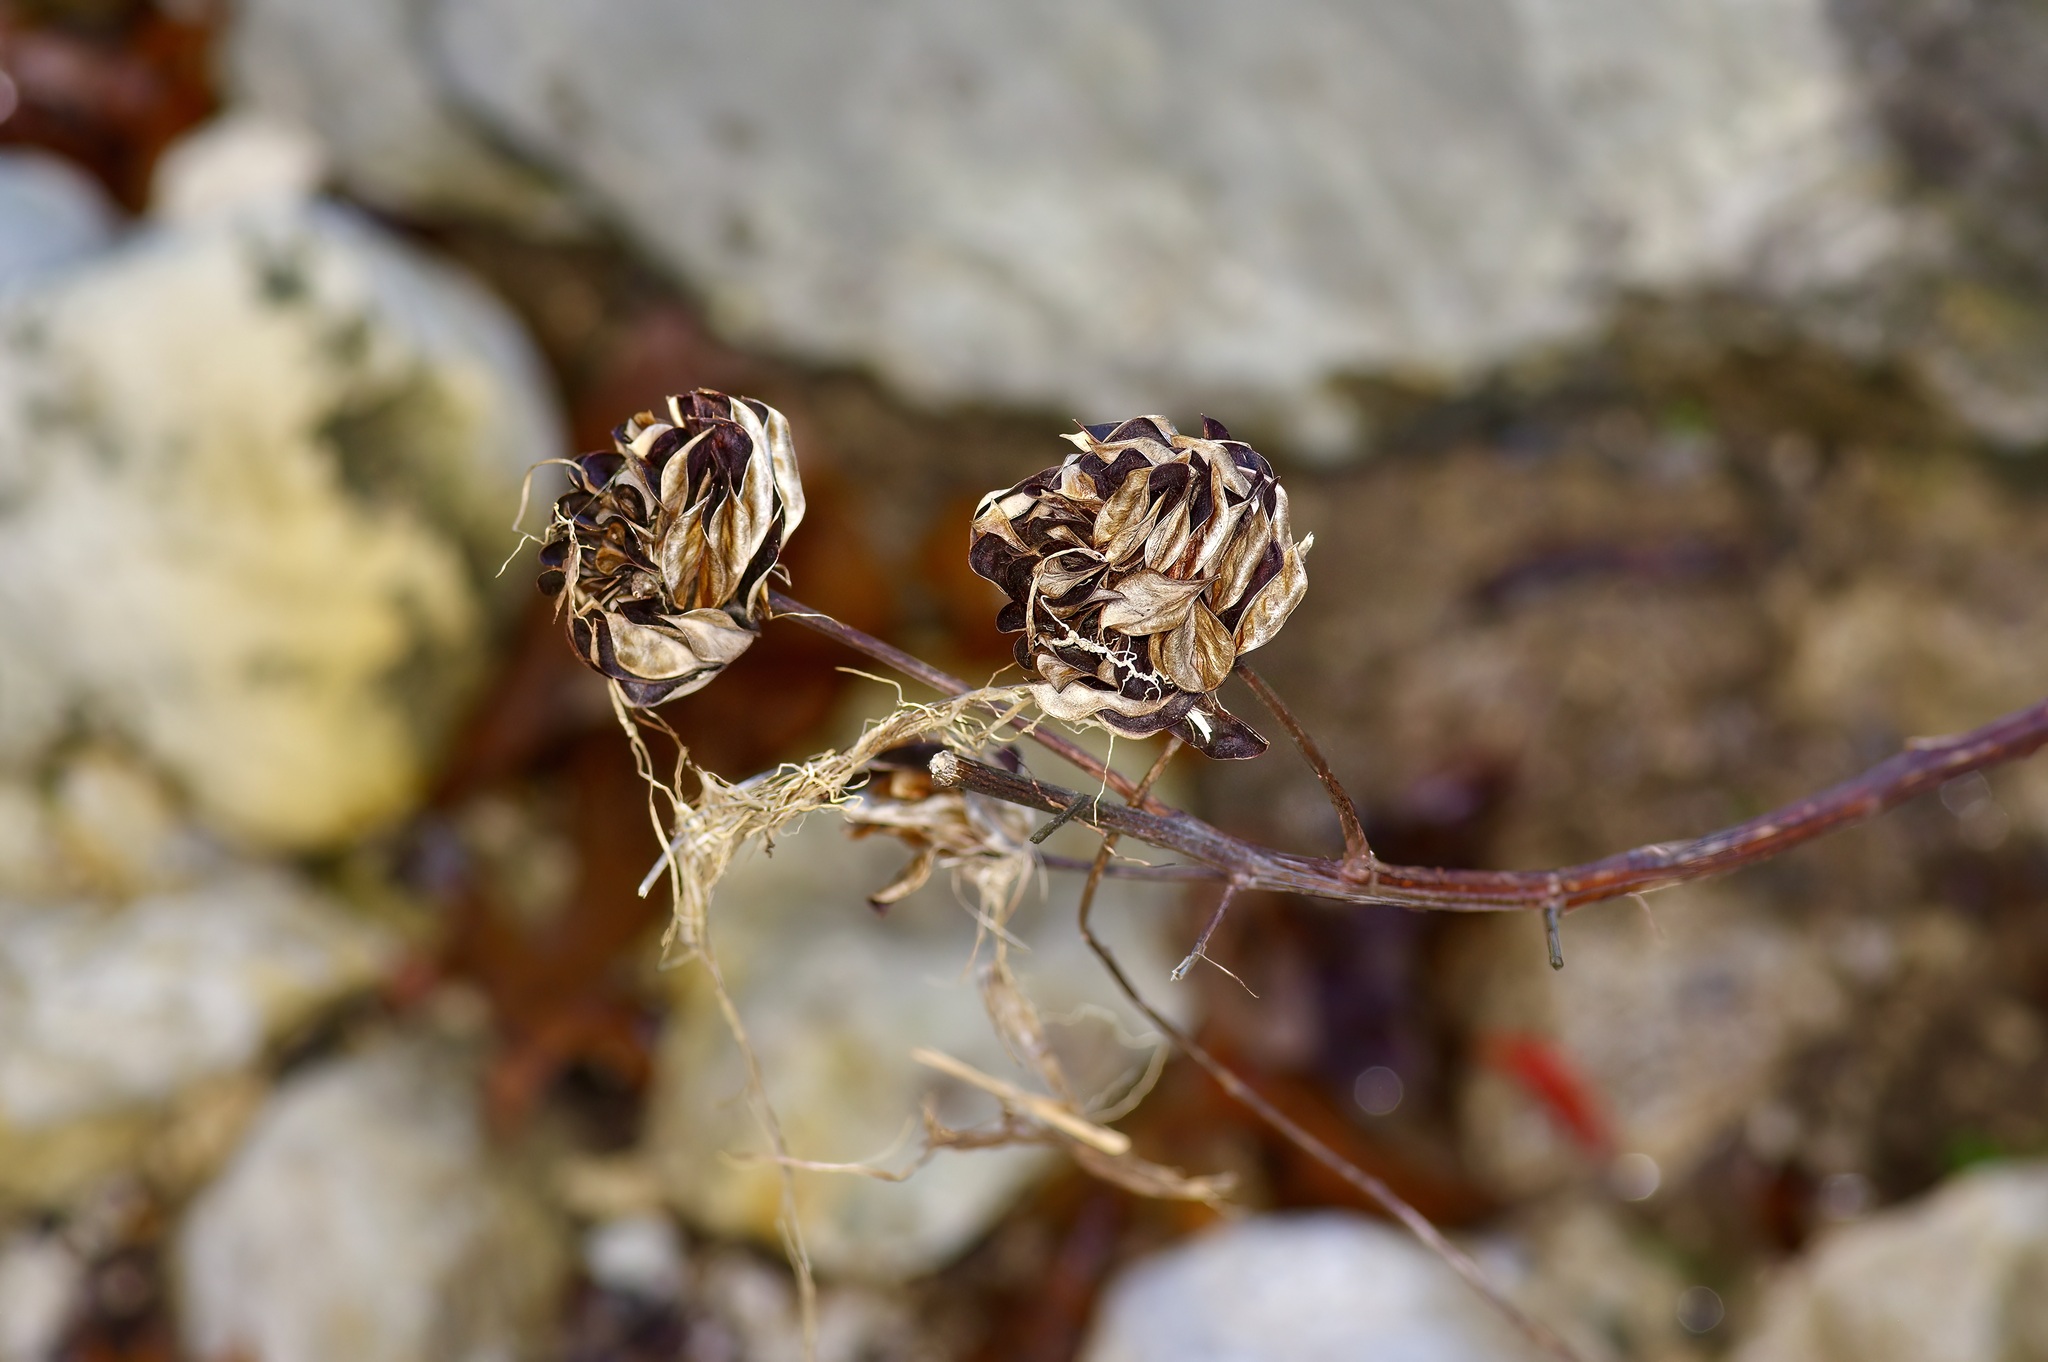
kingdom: Plantae
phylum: Tracheophyta
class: Magnoliopsida
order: Fabales
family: Fabaceae
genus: Desmanthus
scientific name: Desmanthus illinoensis
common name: Illinois bundle-flower
